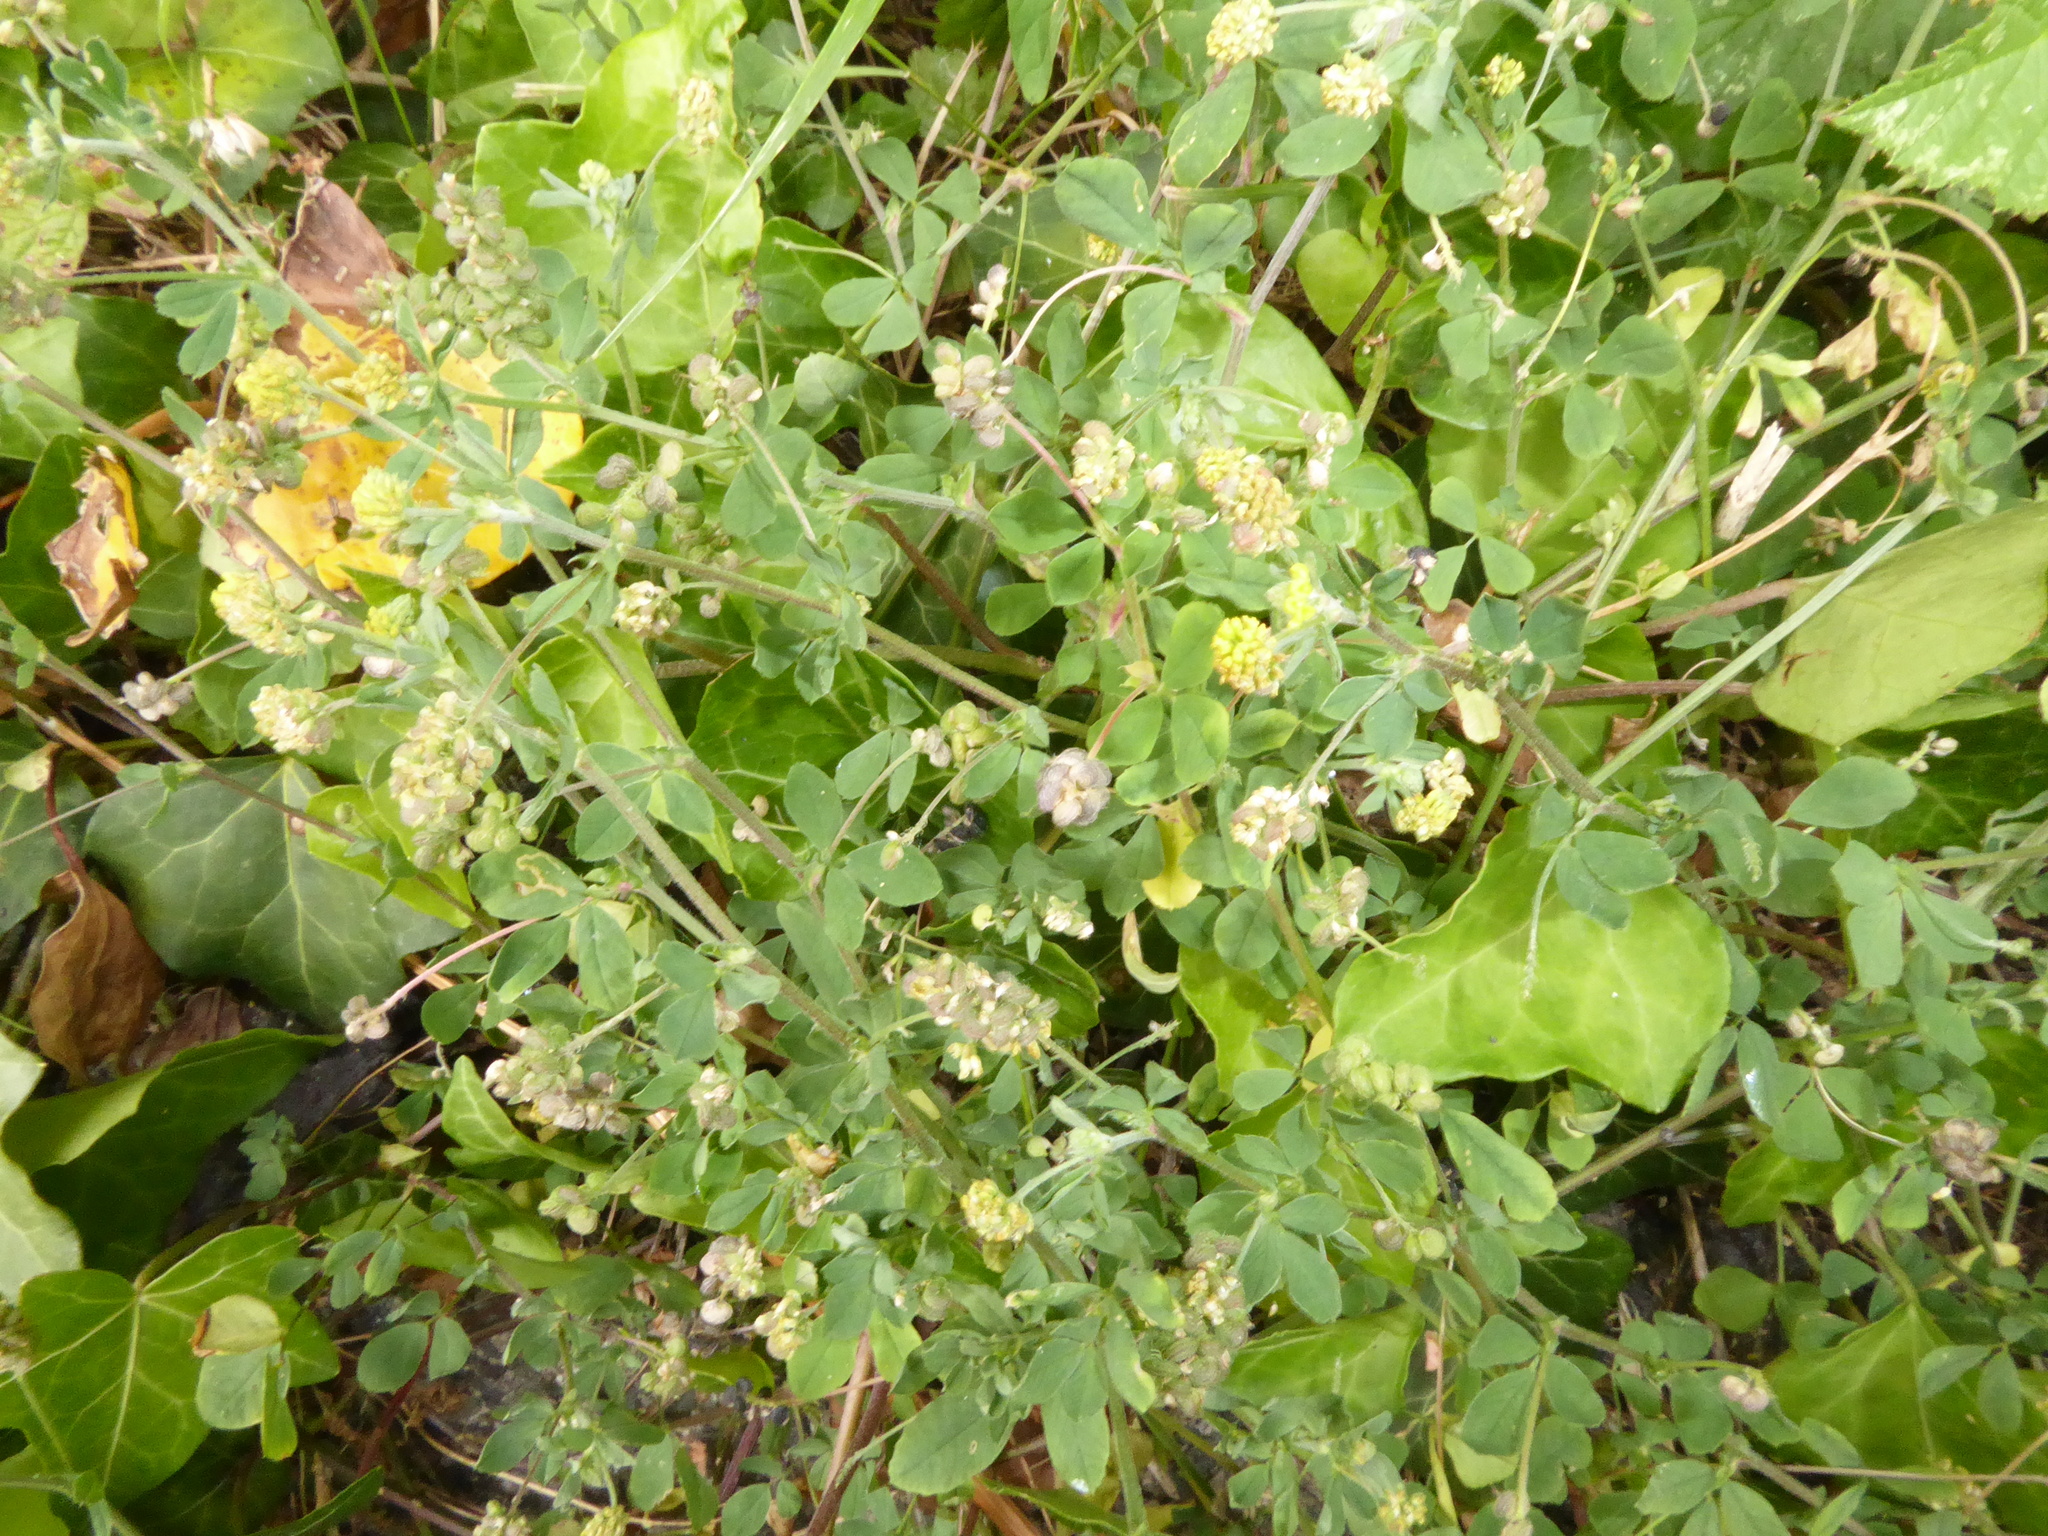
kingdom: Plantae
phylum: Tracheophyta
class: Magnoliopsida
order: Fabales
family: Fabaceae
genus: Medicago
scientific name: Medicago lupulina
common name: Black medick
